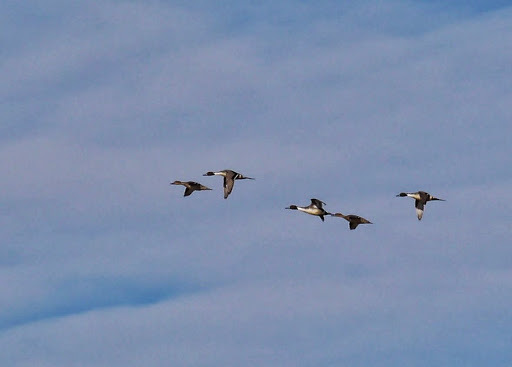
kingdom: Animalia
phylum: Chordata
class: Aves
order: Anseriformes
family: Anatidae
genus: Anas
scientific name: Anas acuta
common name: Northern pintail
